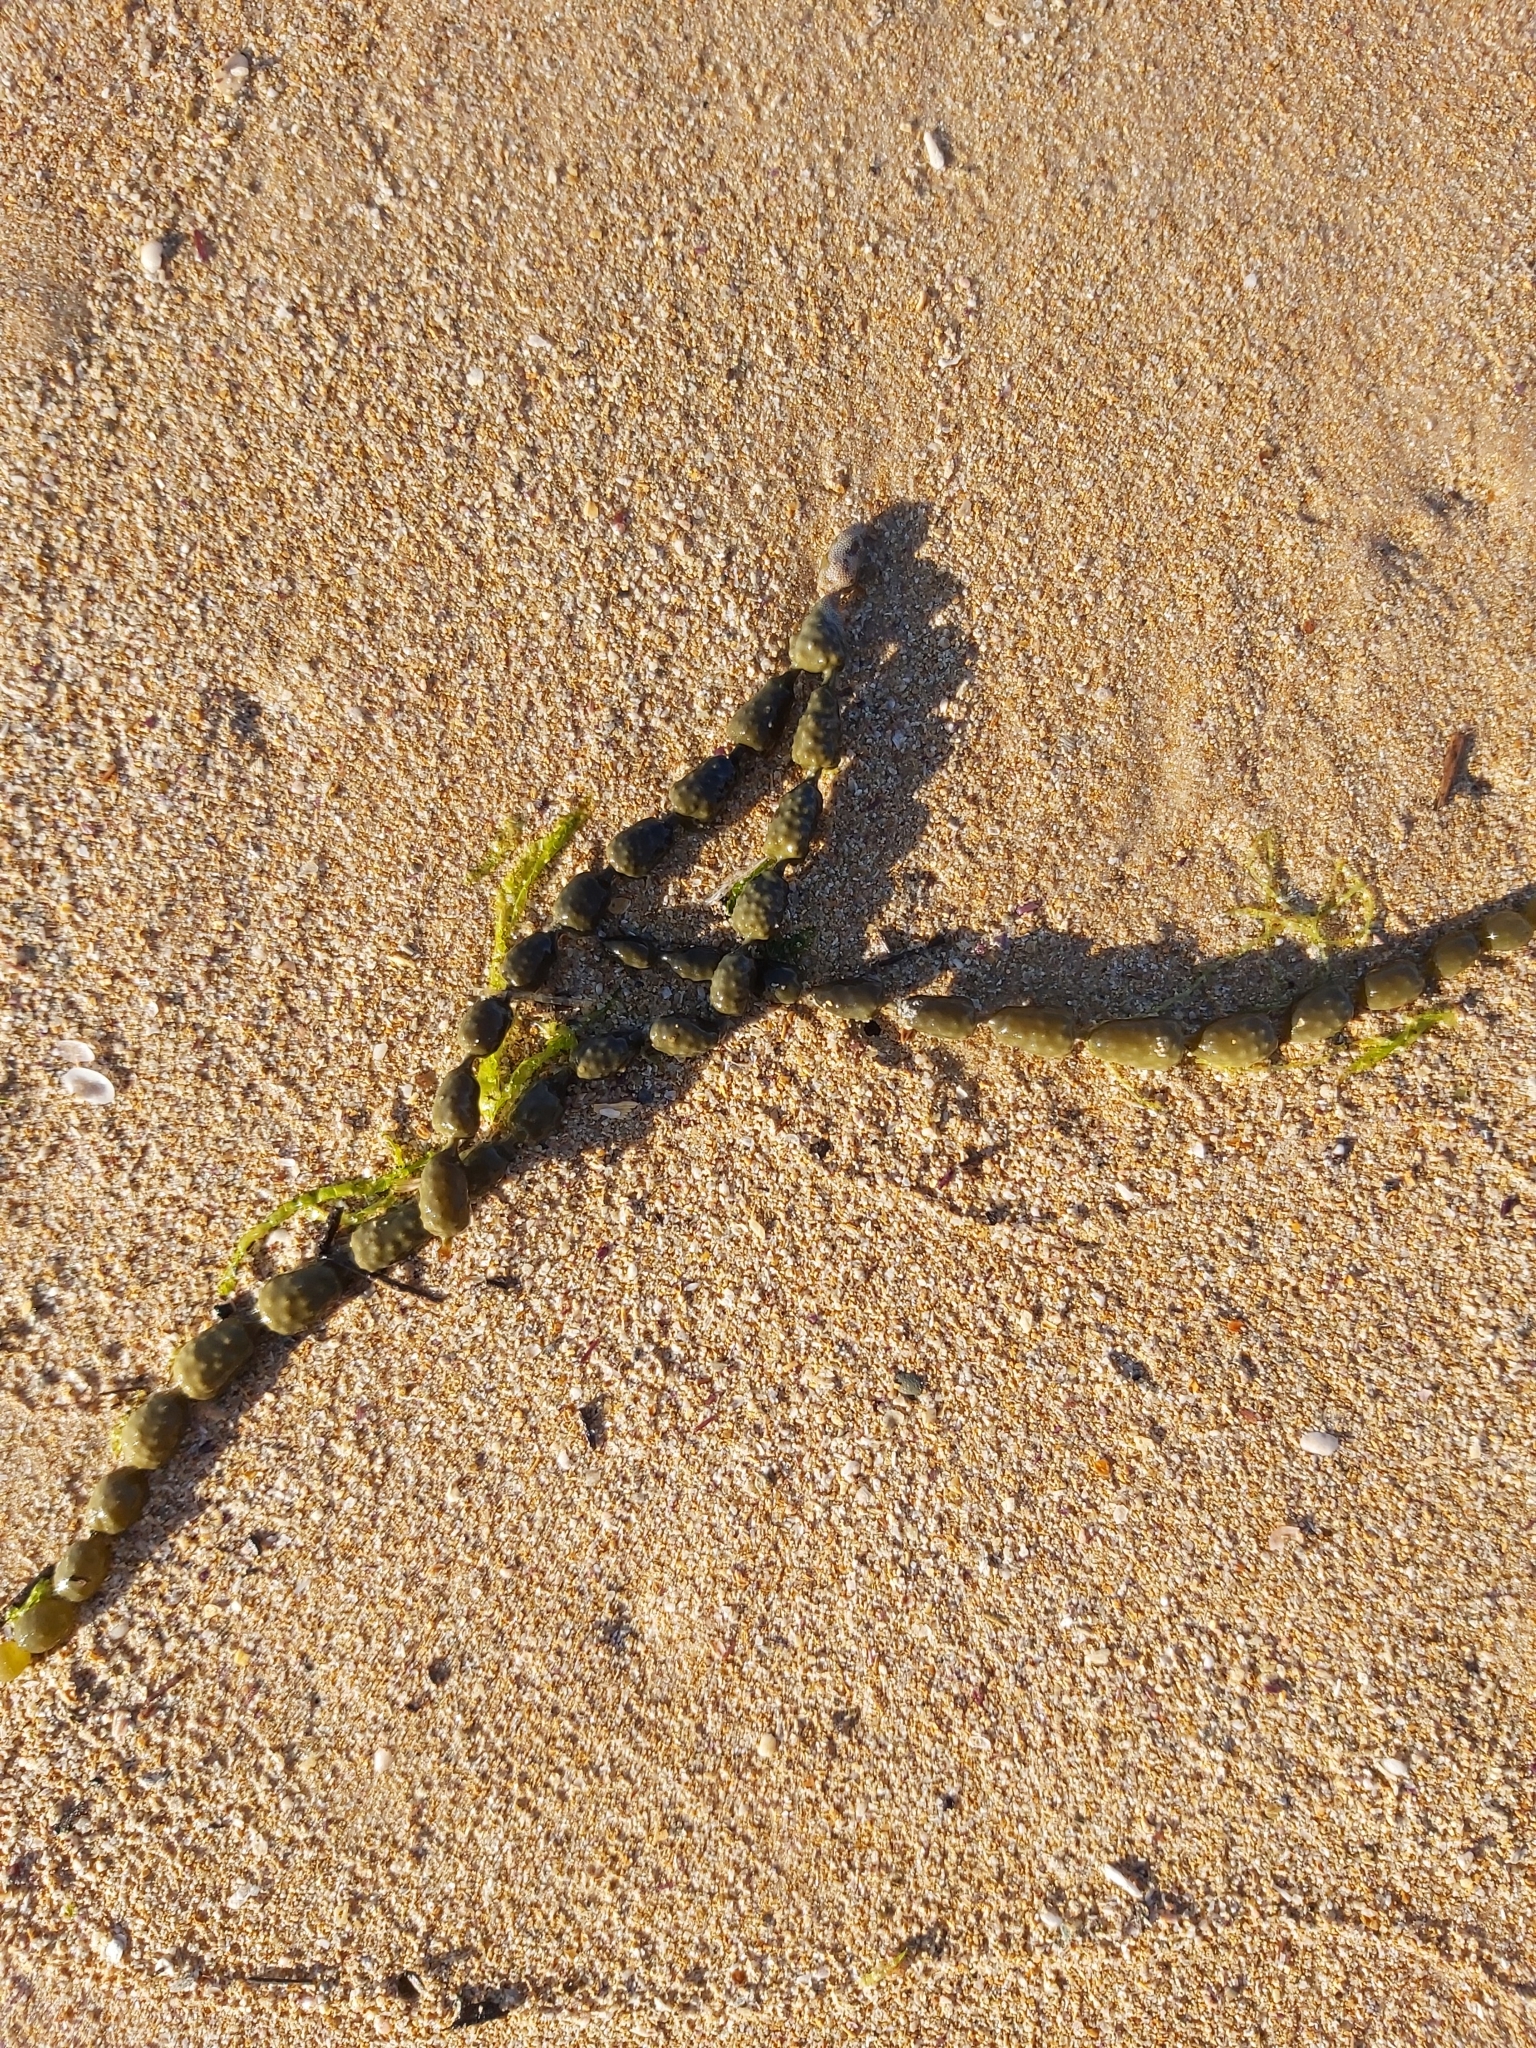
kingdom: Chromista
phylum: Ochrophyta
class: Phaeophyceae
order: Fucales
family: Hormosiraceae
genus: Hormosira
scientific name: Hormosira banksii
